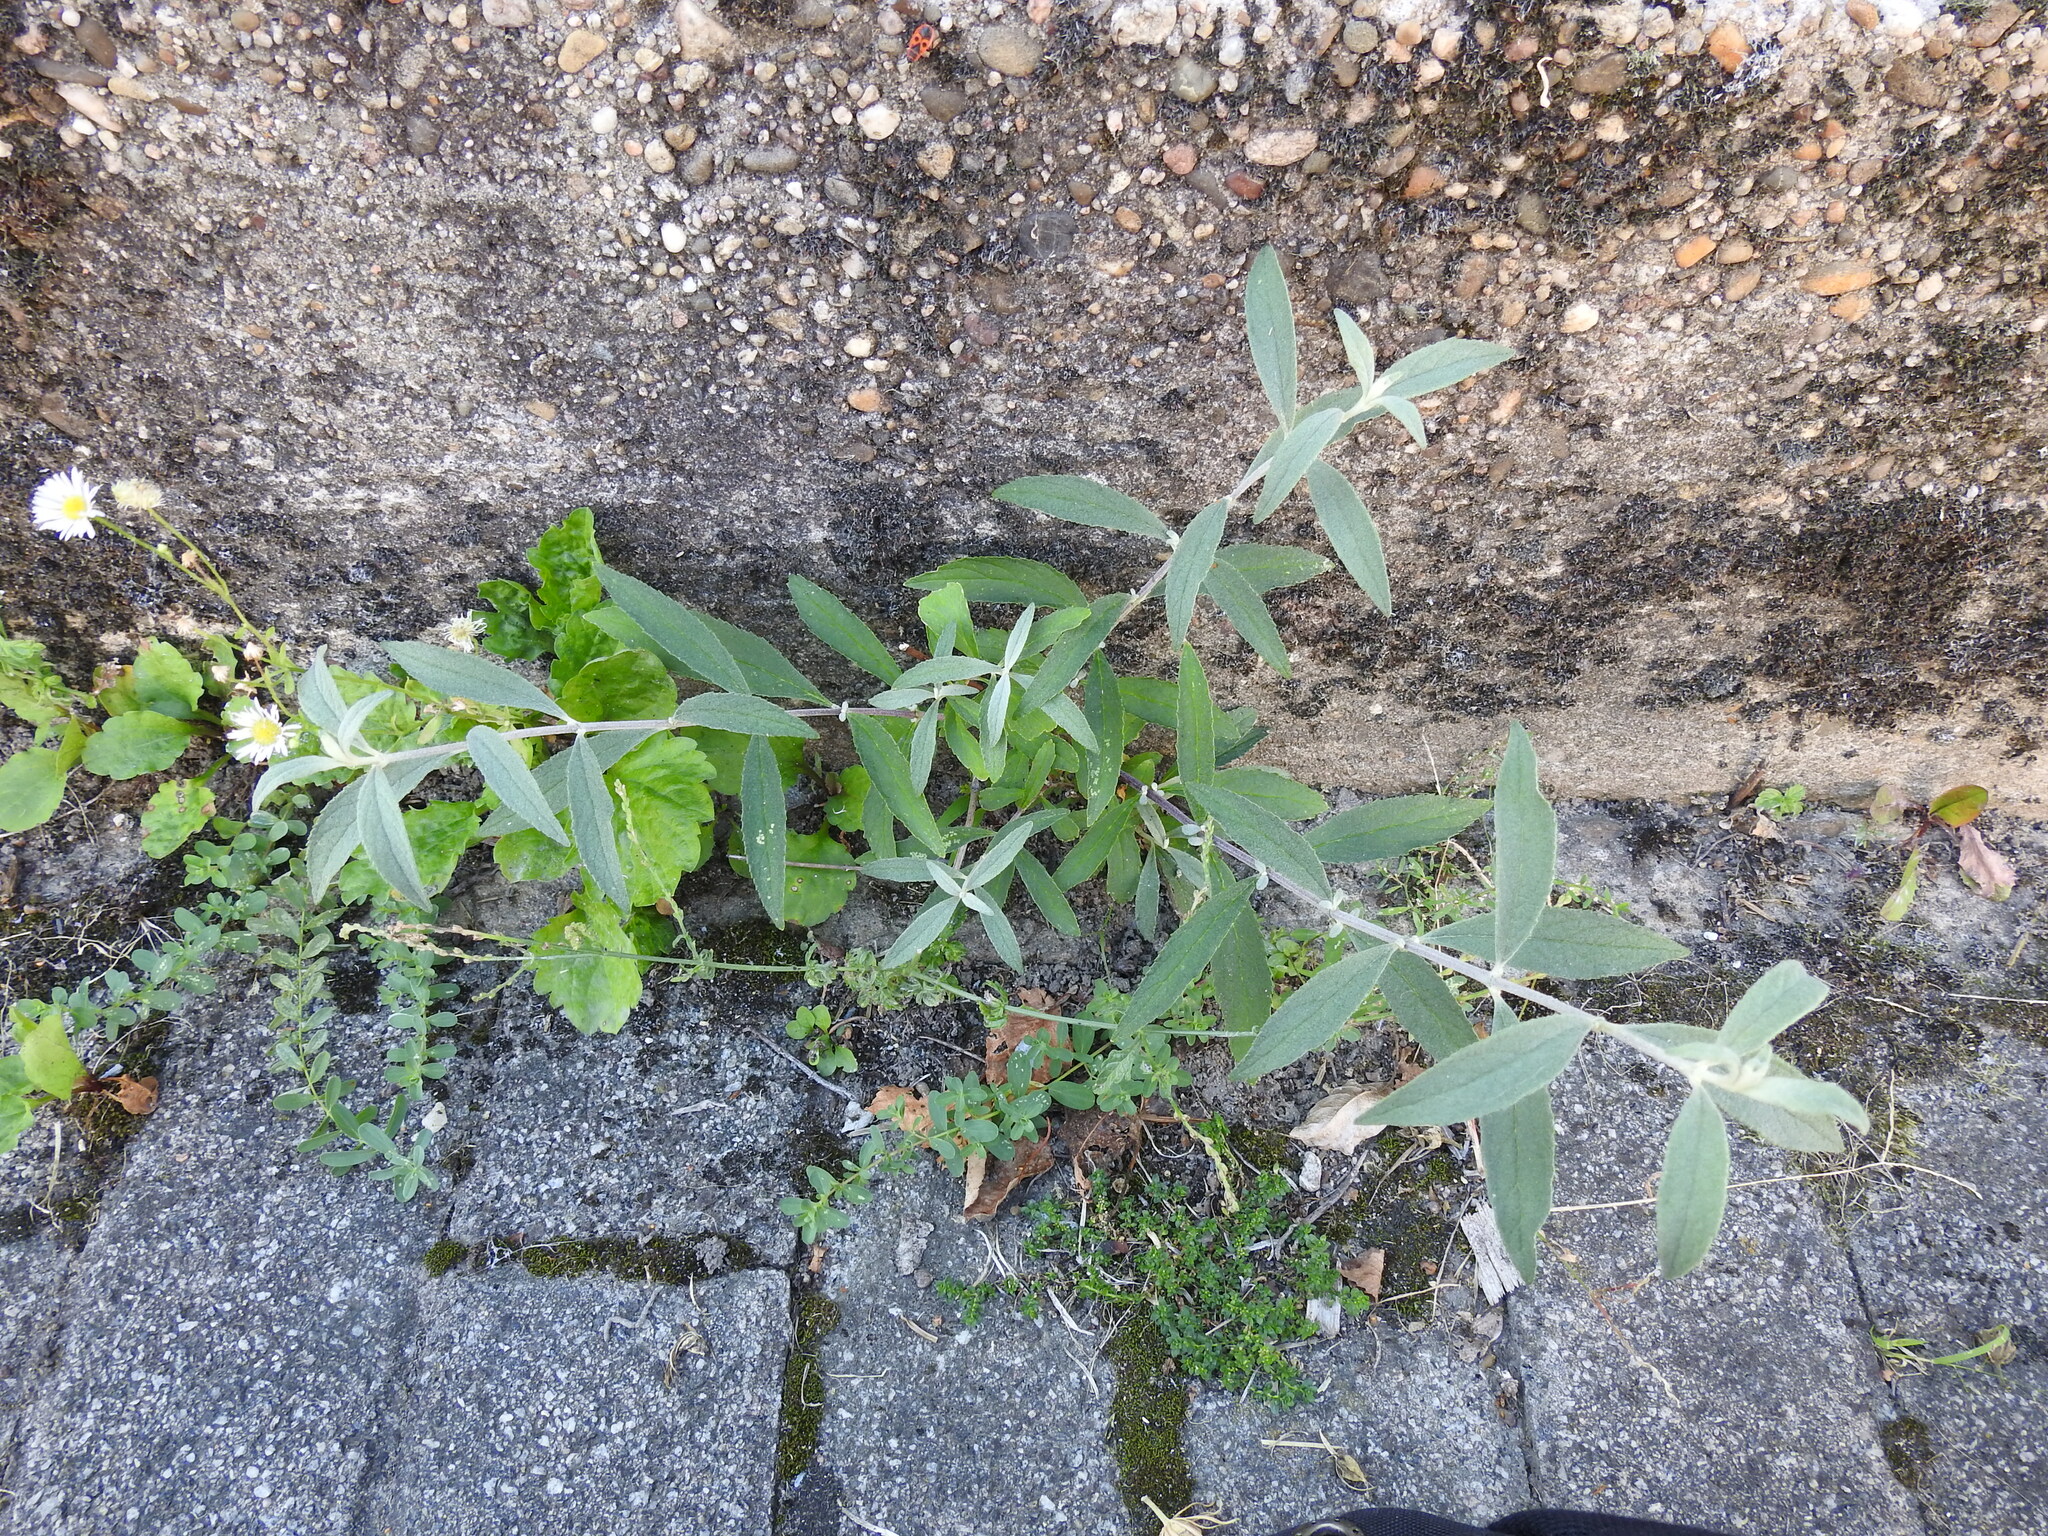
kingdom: Plantae
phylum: Tracheophyta
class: Magnoliopsida
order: Lamiales
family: Scrophulariaceae
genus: Buddleja
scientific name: Buddleja davidii
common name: Butterfly-bush
